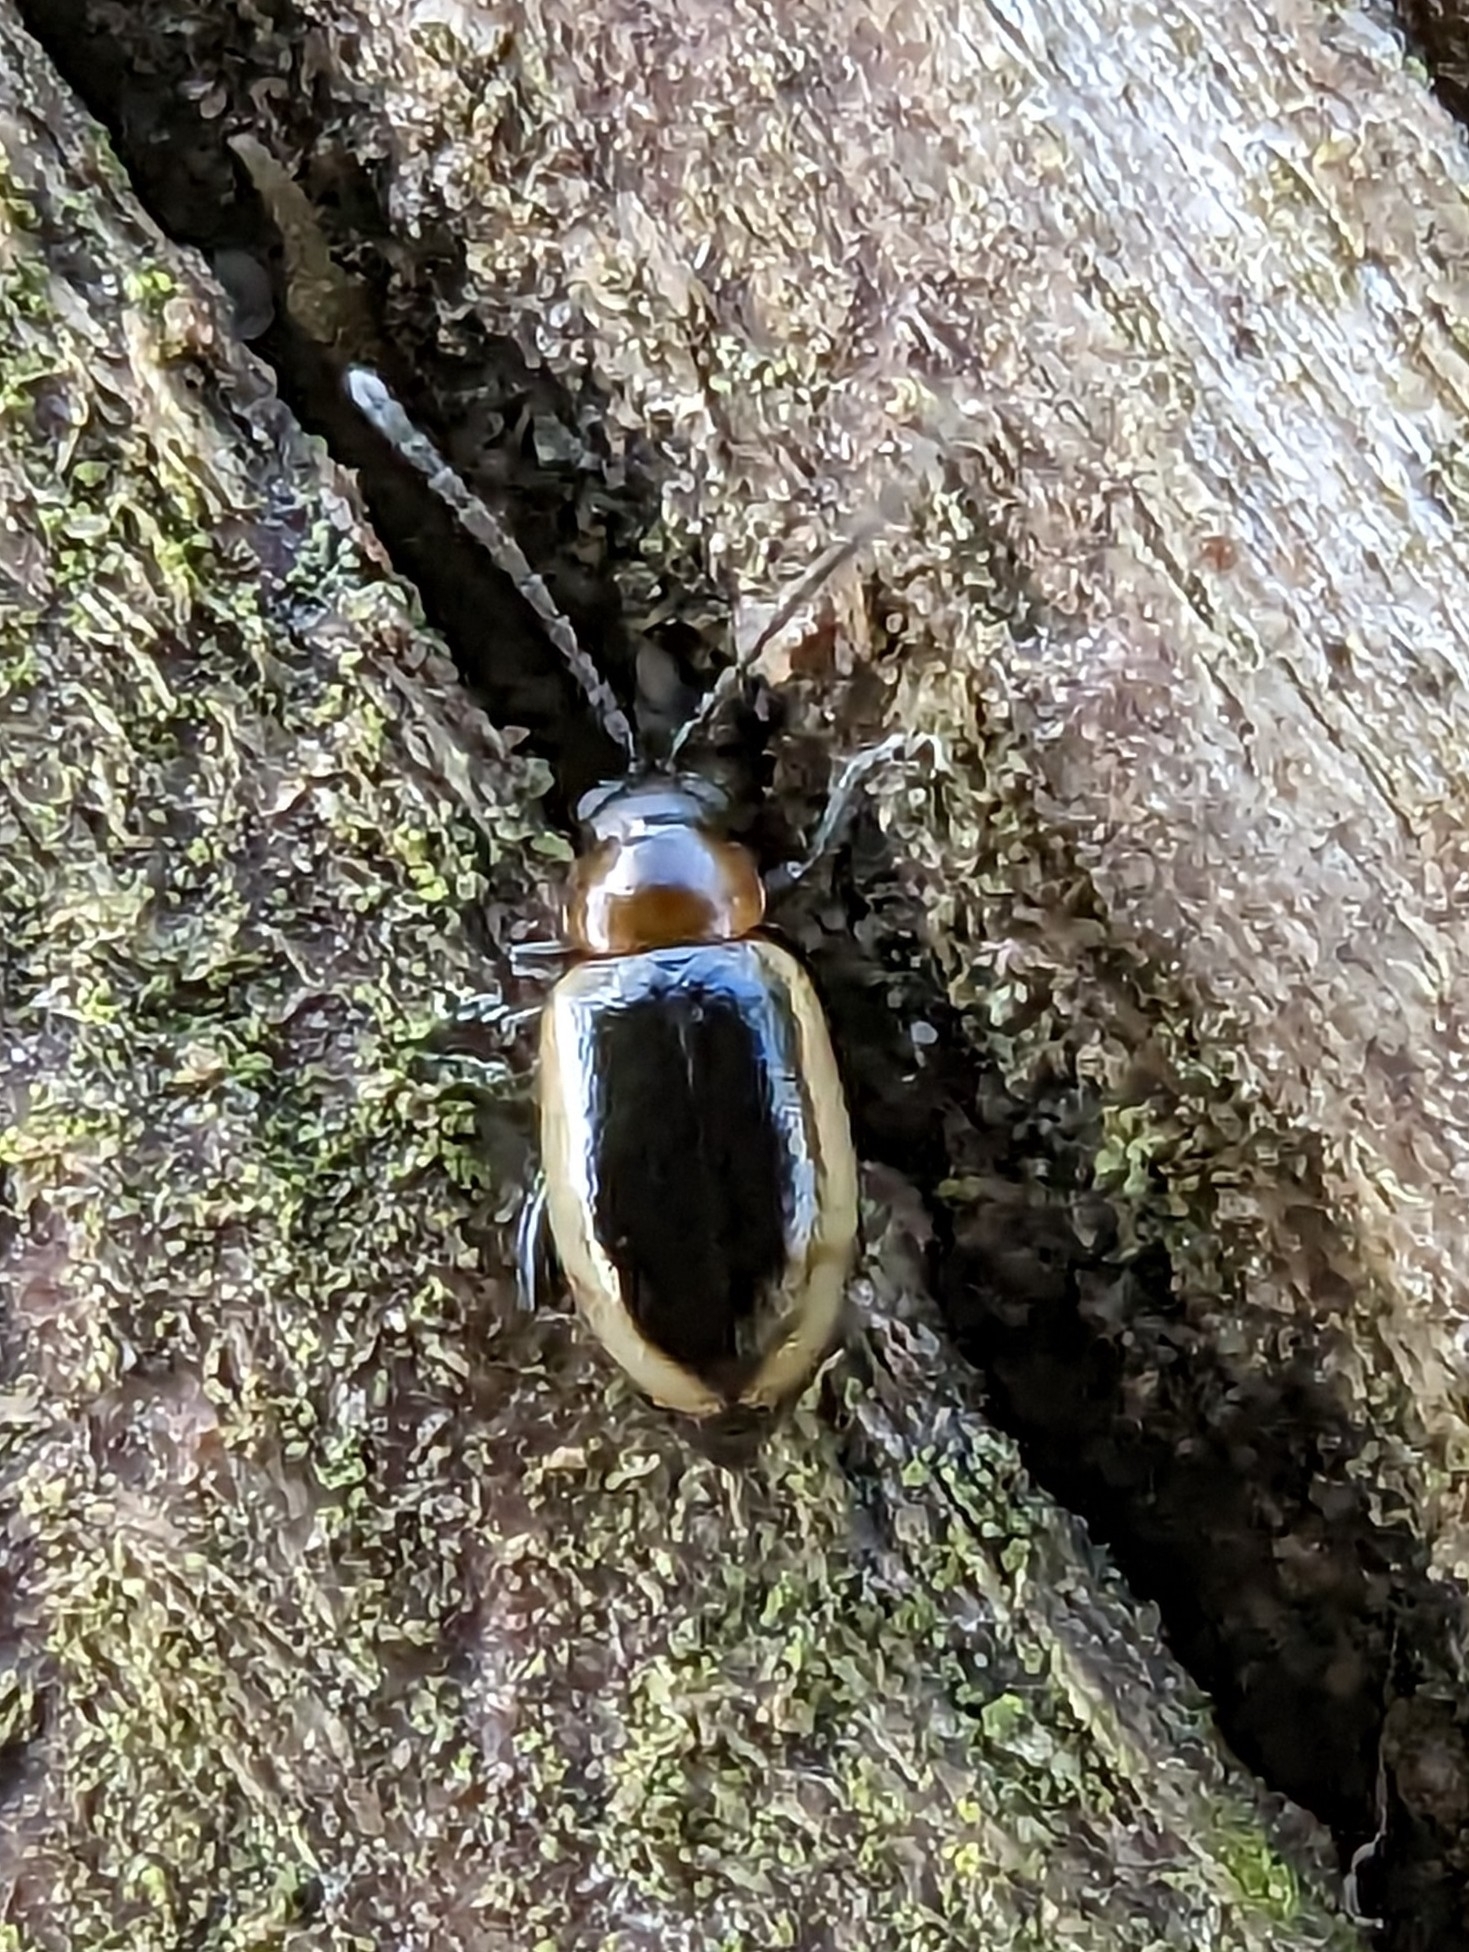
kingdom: Animalia
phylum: Arthropoda
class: Insecta
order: Coleoptera
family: Chrysomelidae
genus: Longitarsus
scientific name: Longitarsus dorsalis
